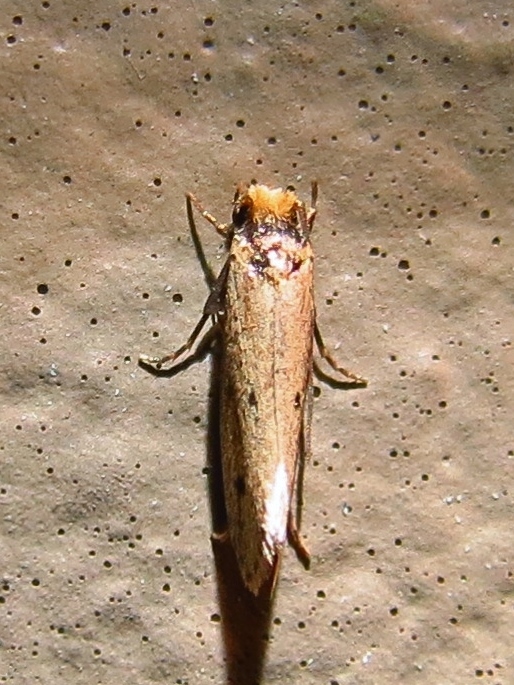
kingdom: Animalia
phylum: Arthropoda
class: Insecta
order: Lepidoptera
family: Tineidae
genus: Tinea
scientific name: Tinea apicimaculella
